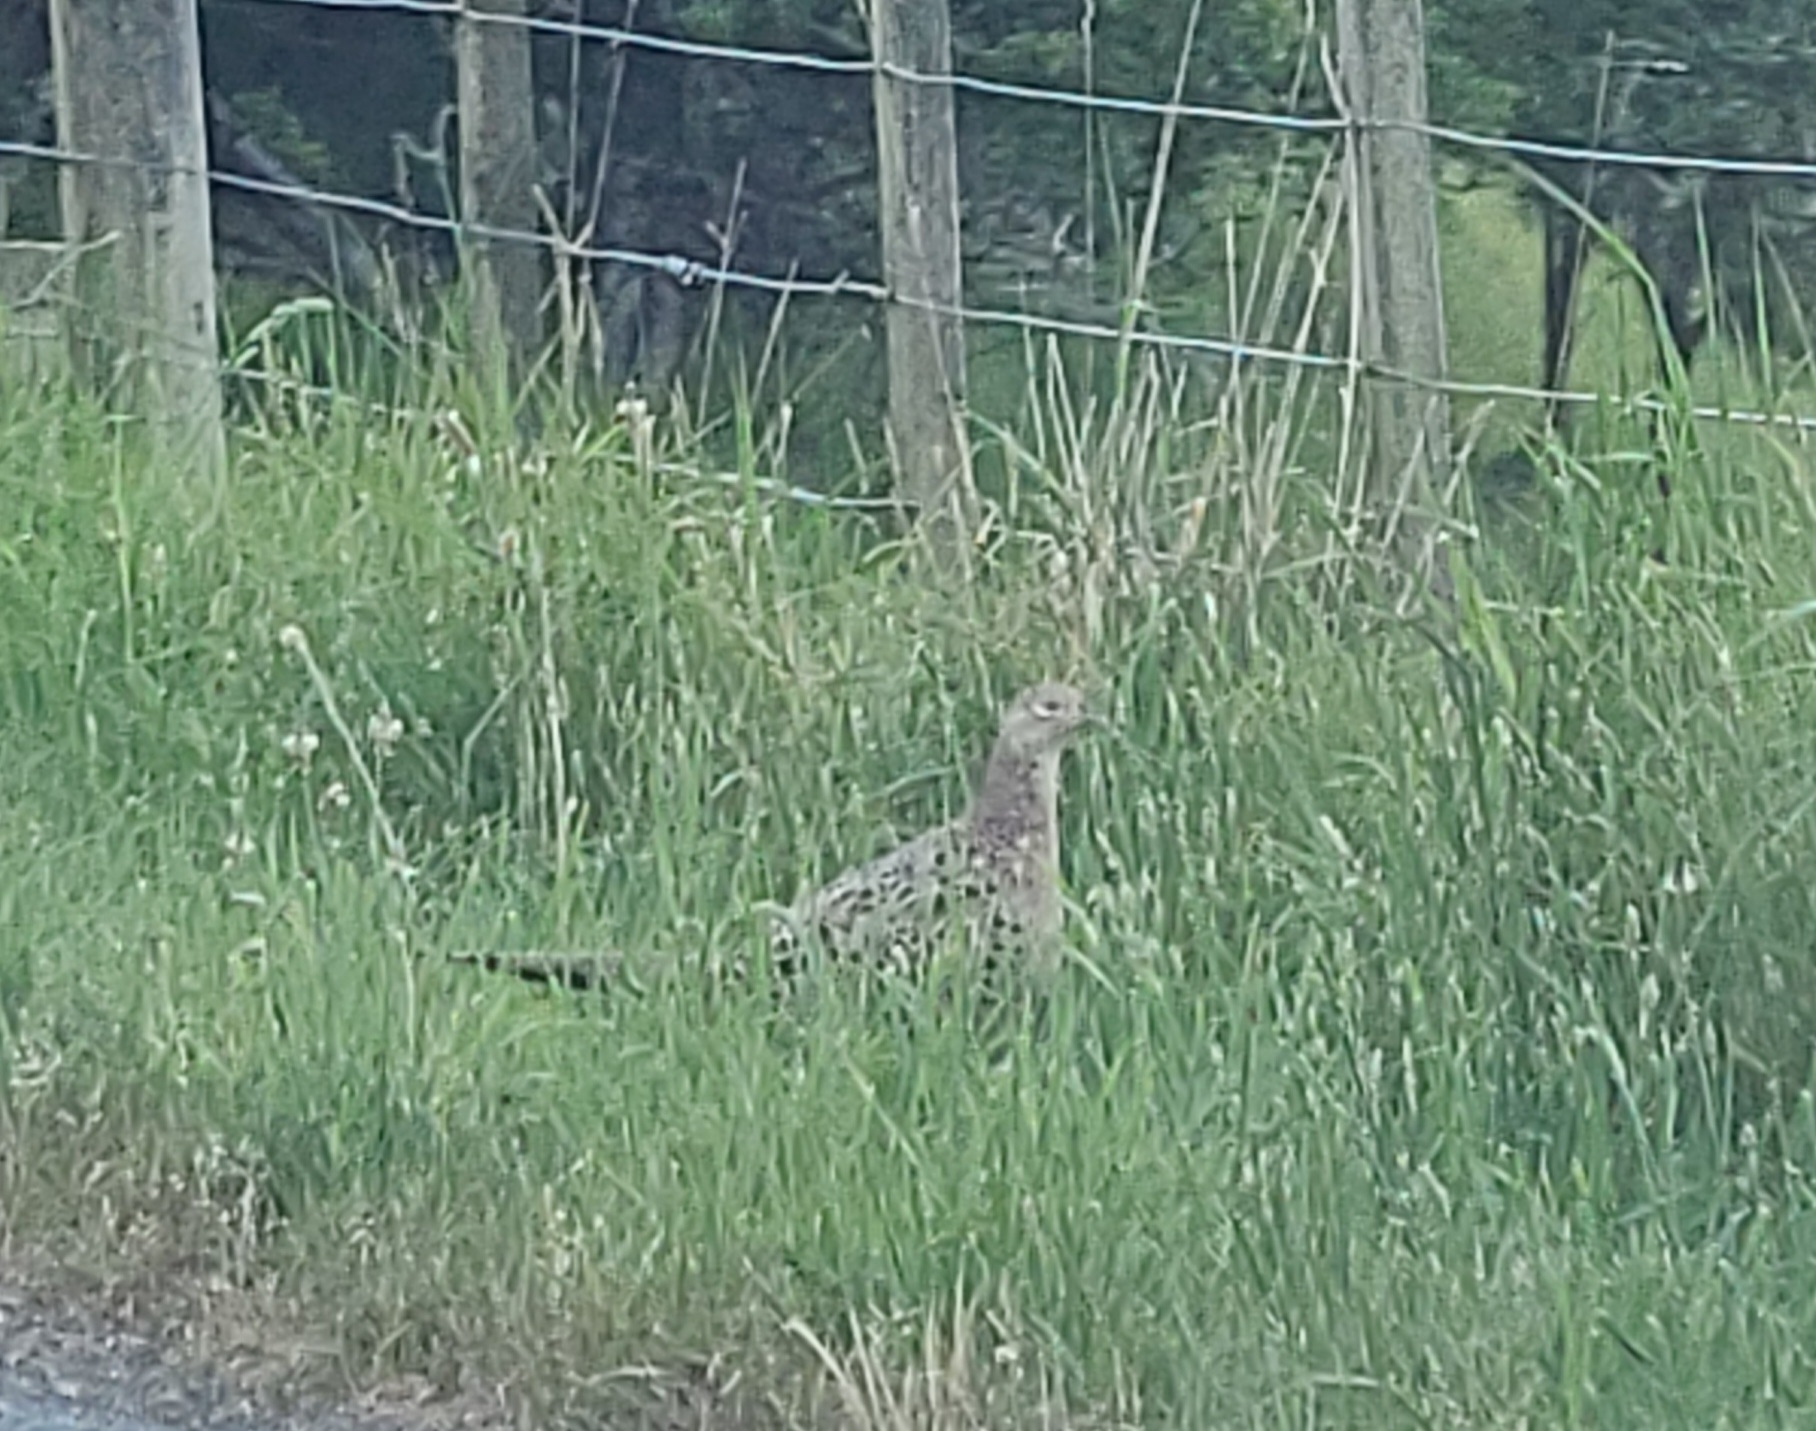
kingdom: Animalia
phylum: Chordata
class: Aves
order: Galliformes
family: Phasianidae
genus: Phasianus
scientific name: Phasianus colchicus
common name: Common pheasant
